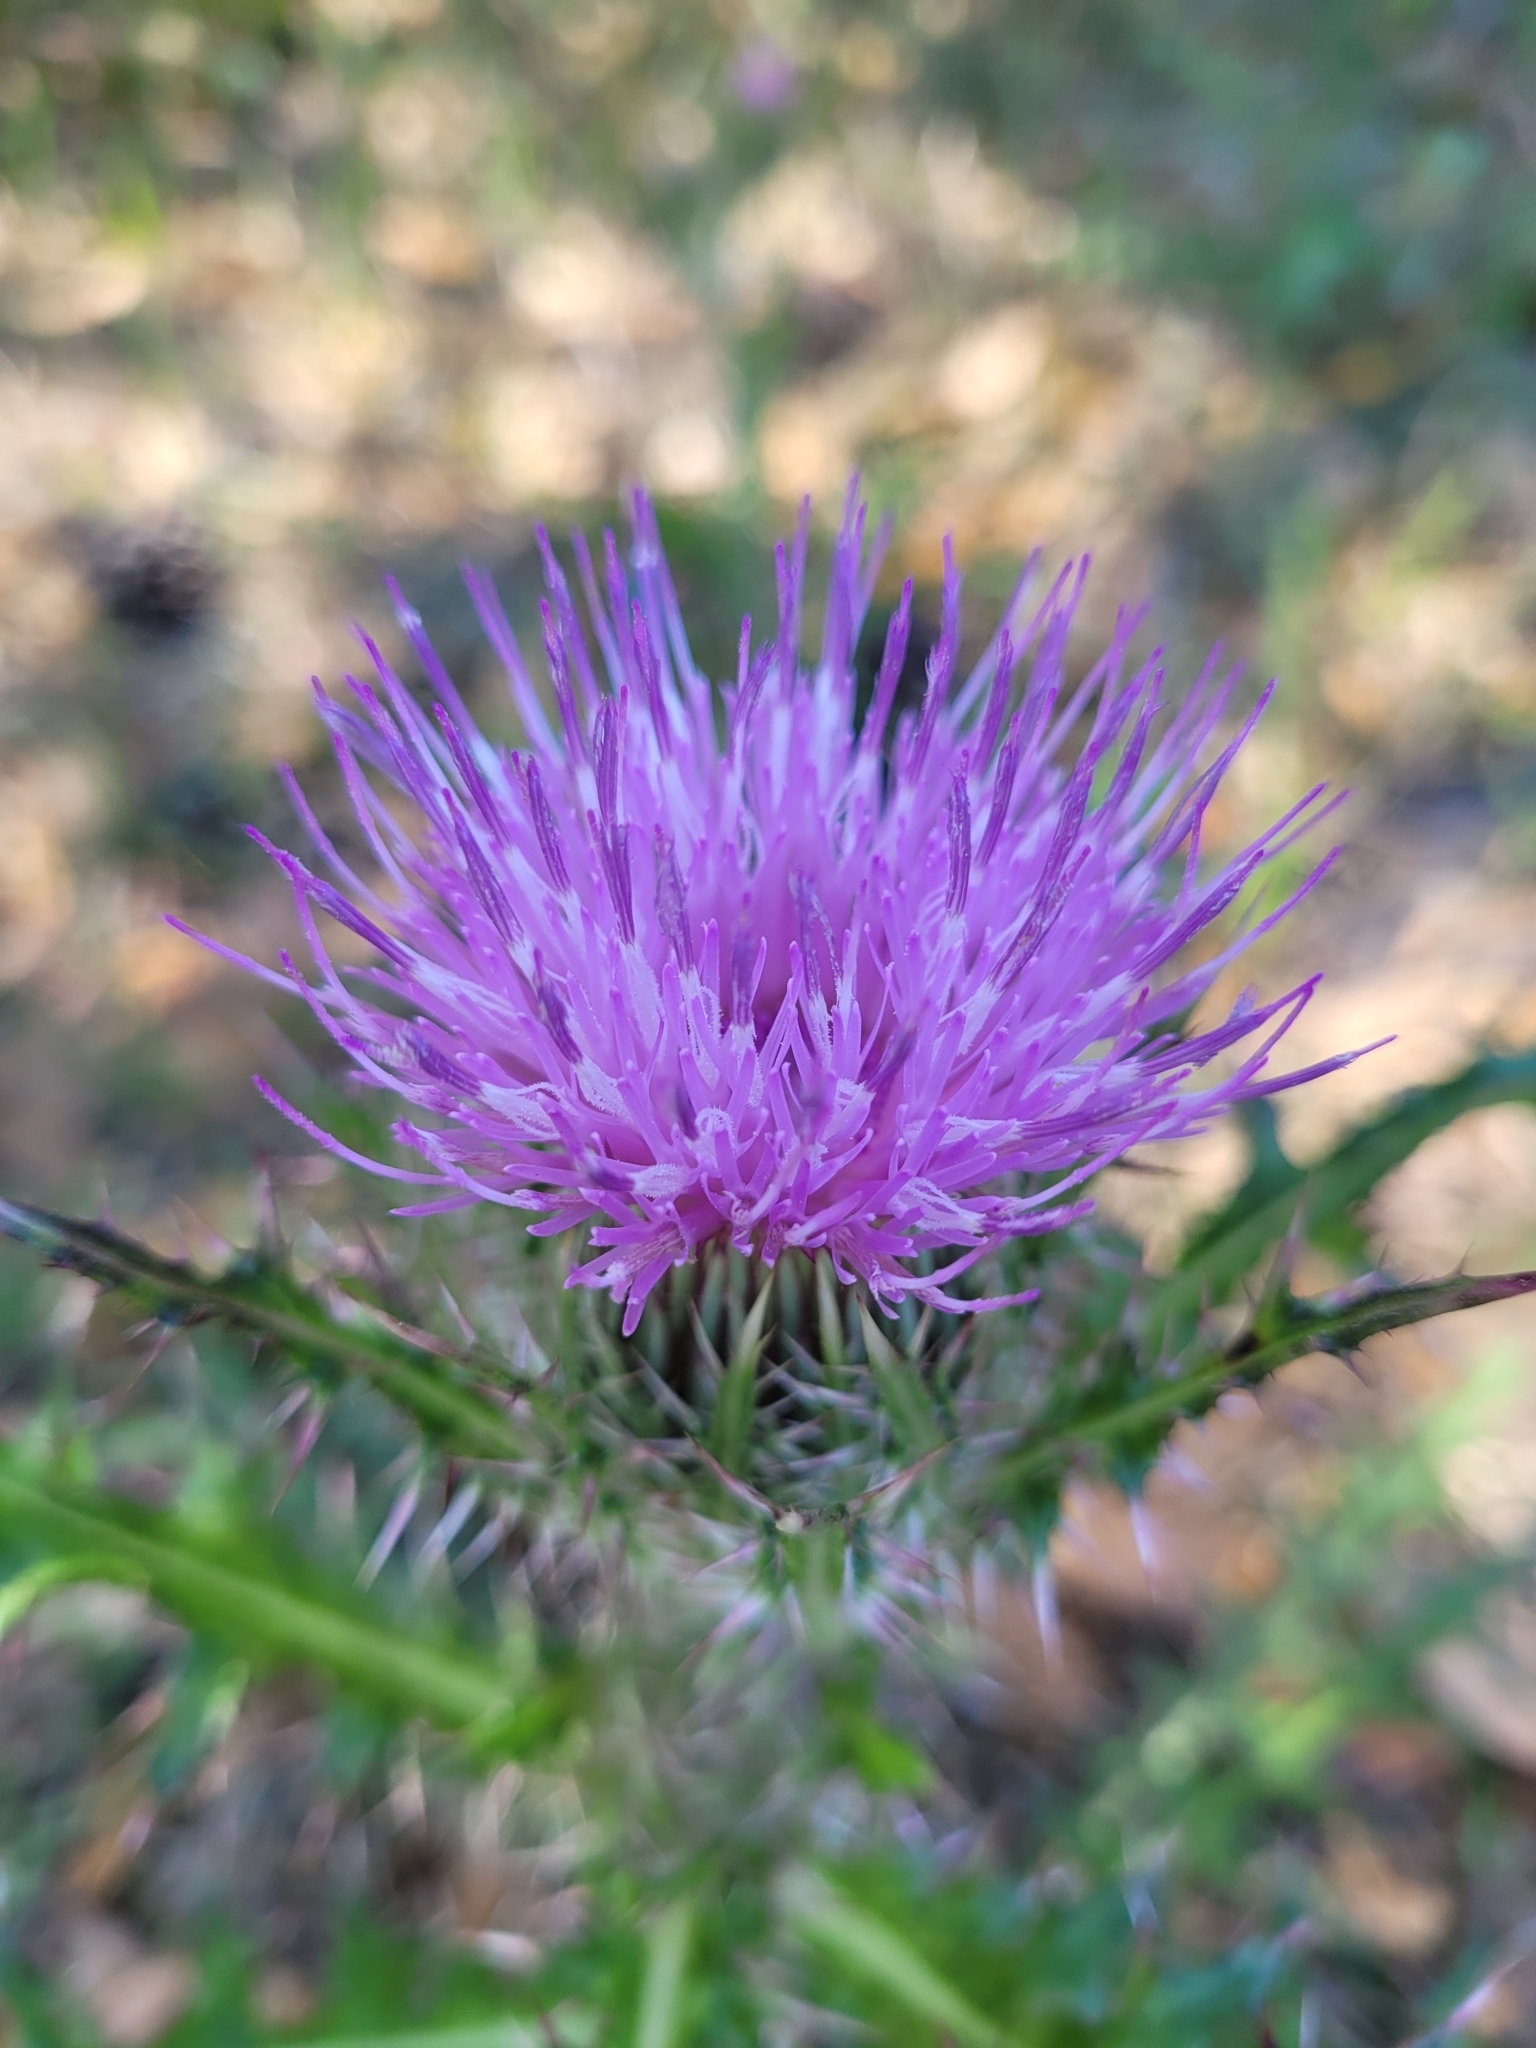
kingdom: Plantae
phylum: Tracheophyta
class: Magnoliopsida
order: Asterales
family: Asteraceae
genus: Cirsium
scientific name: Cirsium horridulum
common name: Bristly thistle
